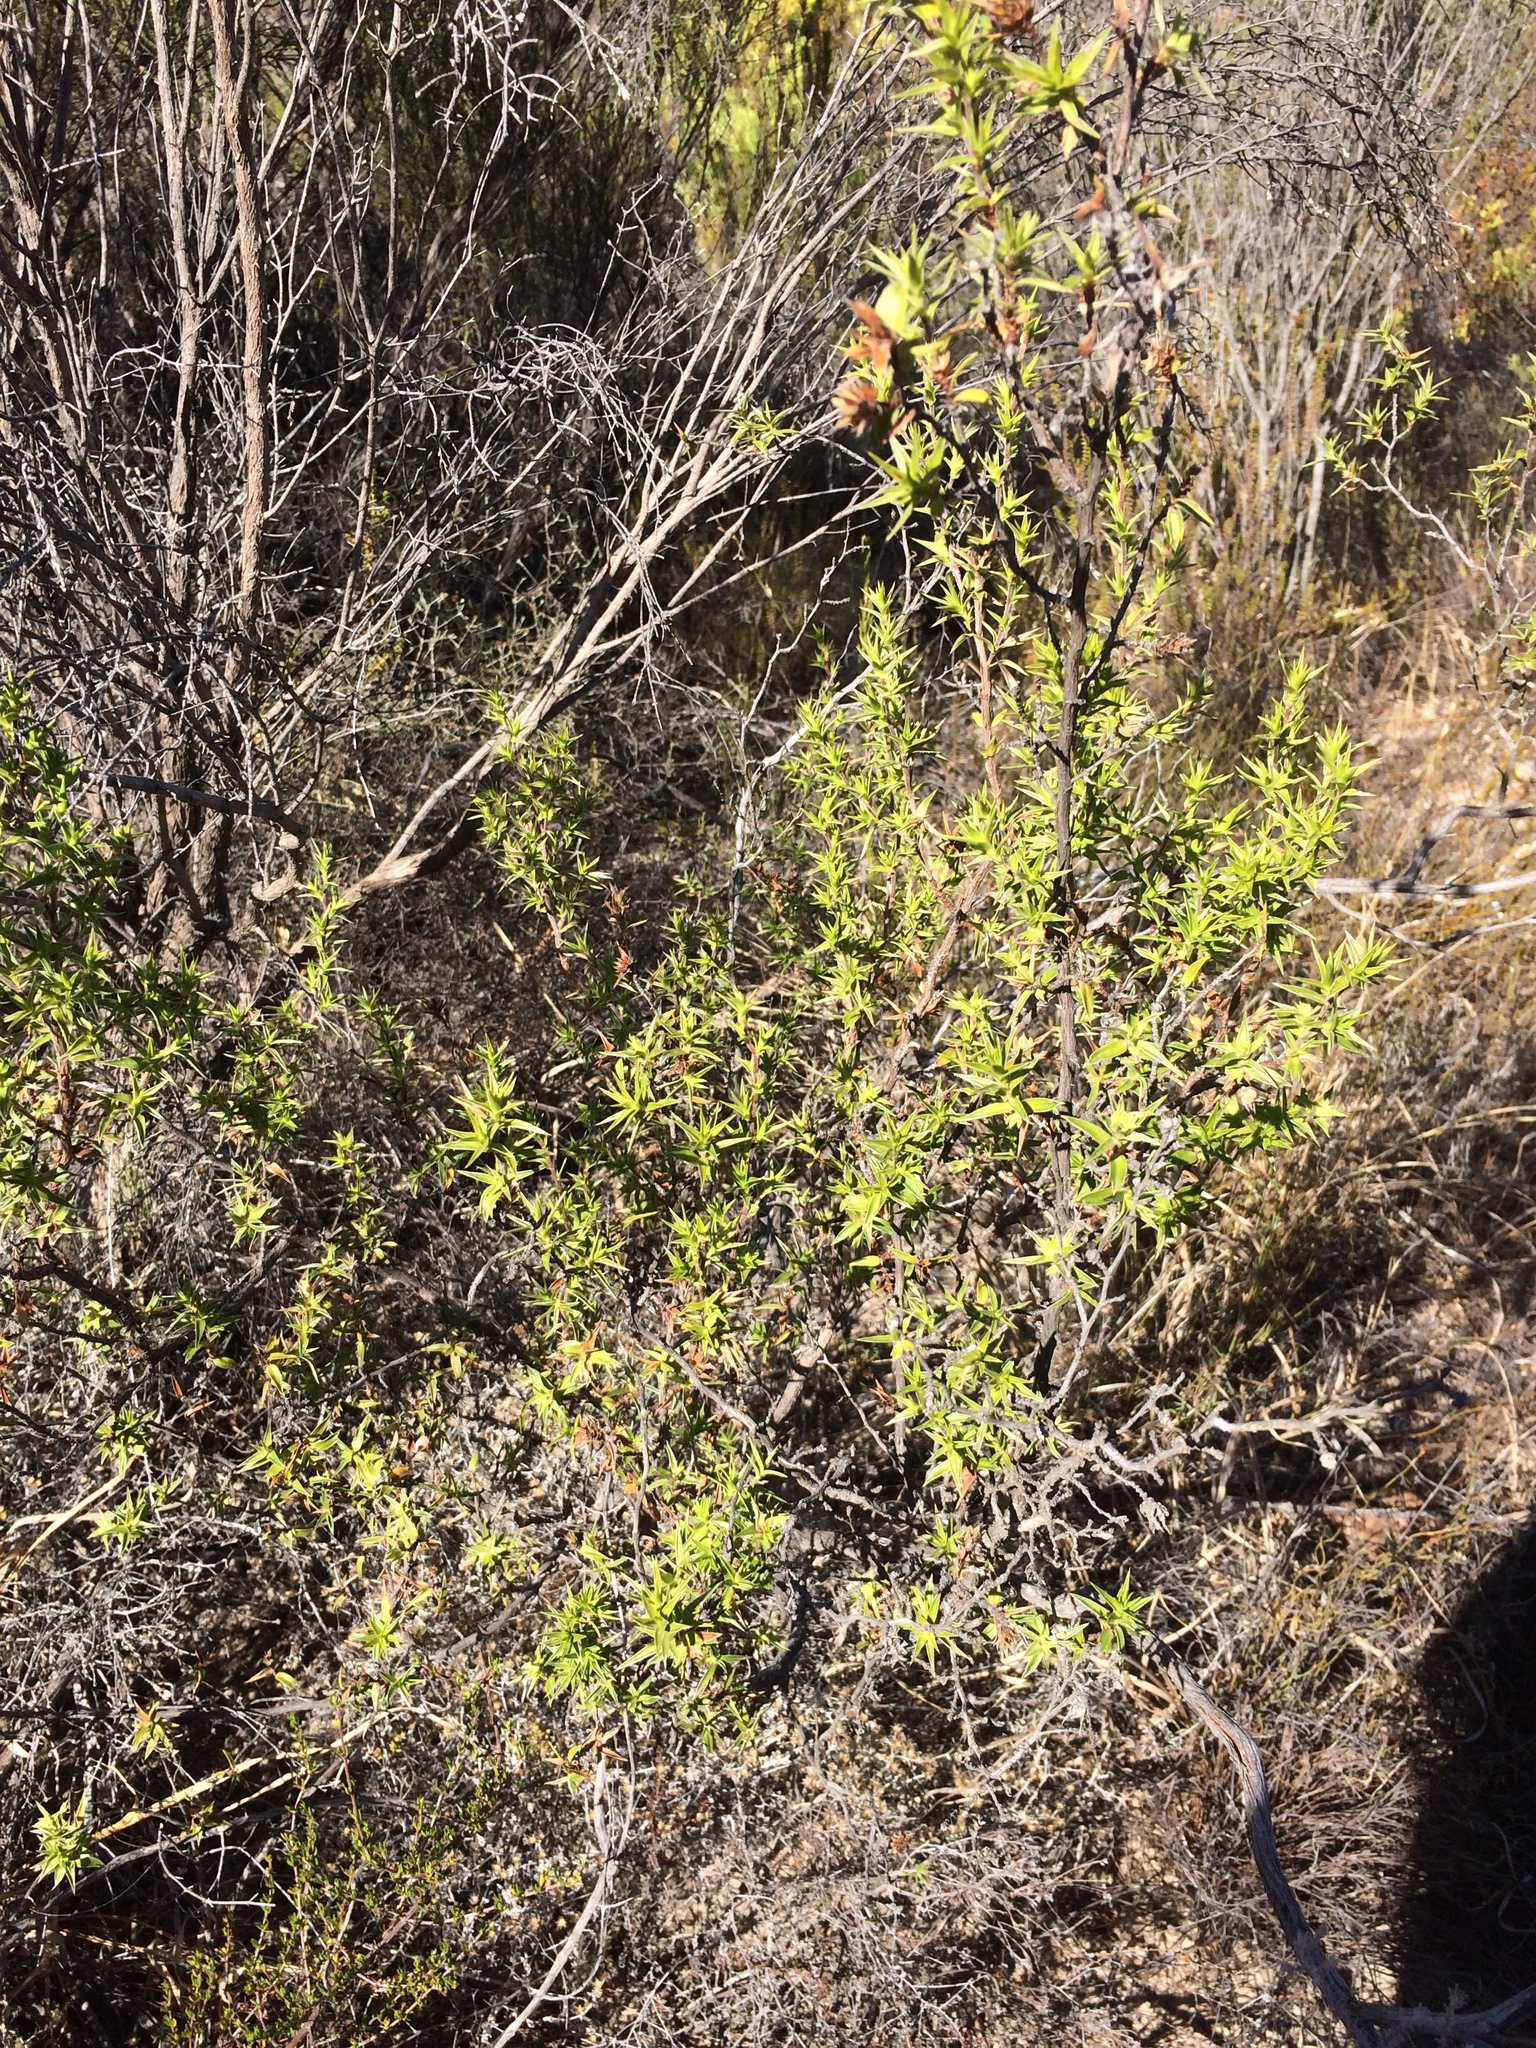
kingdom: Plantae
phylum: Tracheophyta
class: Magnoliopsida
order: Rosales
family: Rosaceae
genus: Cliffortia
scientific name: Cliffortia ruscifolia
